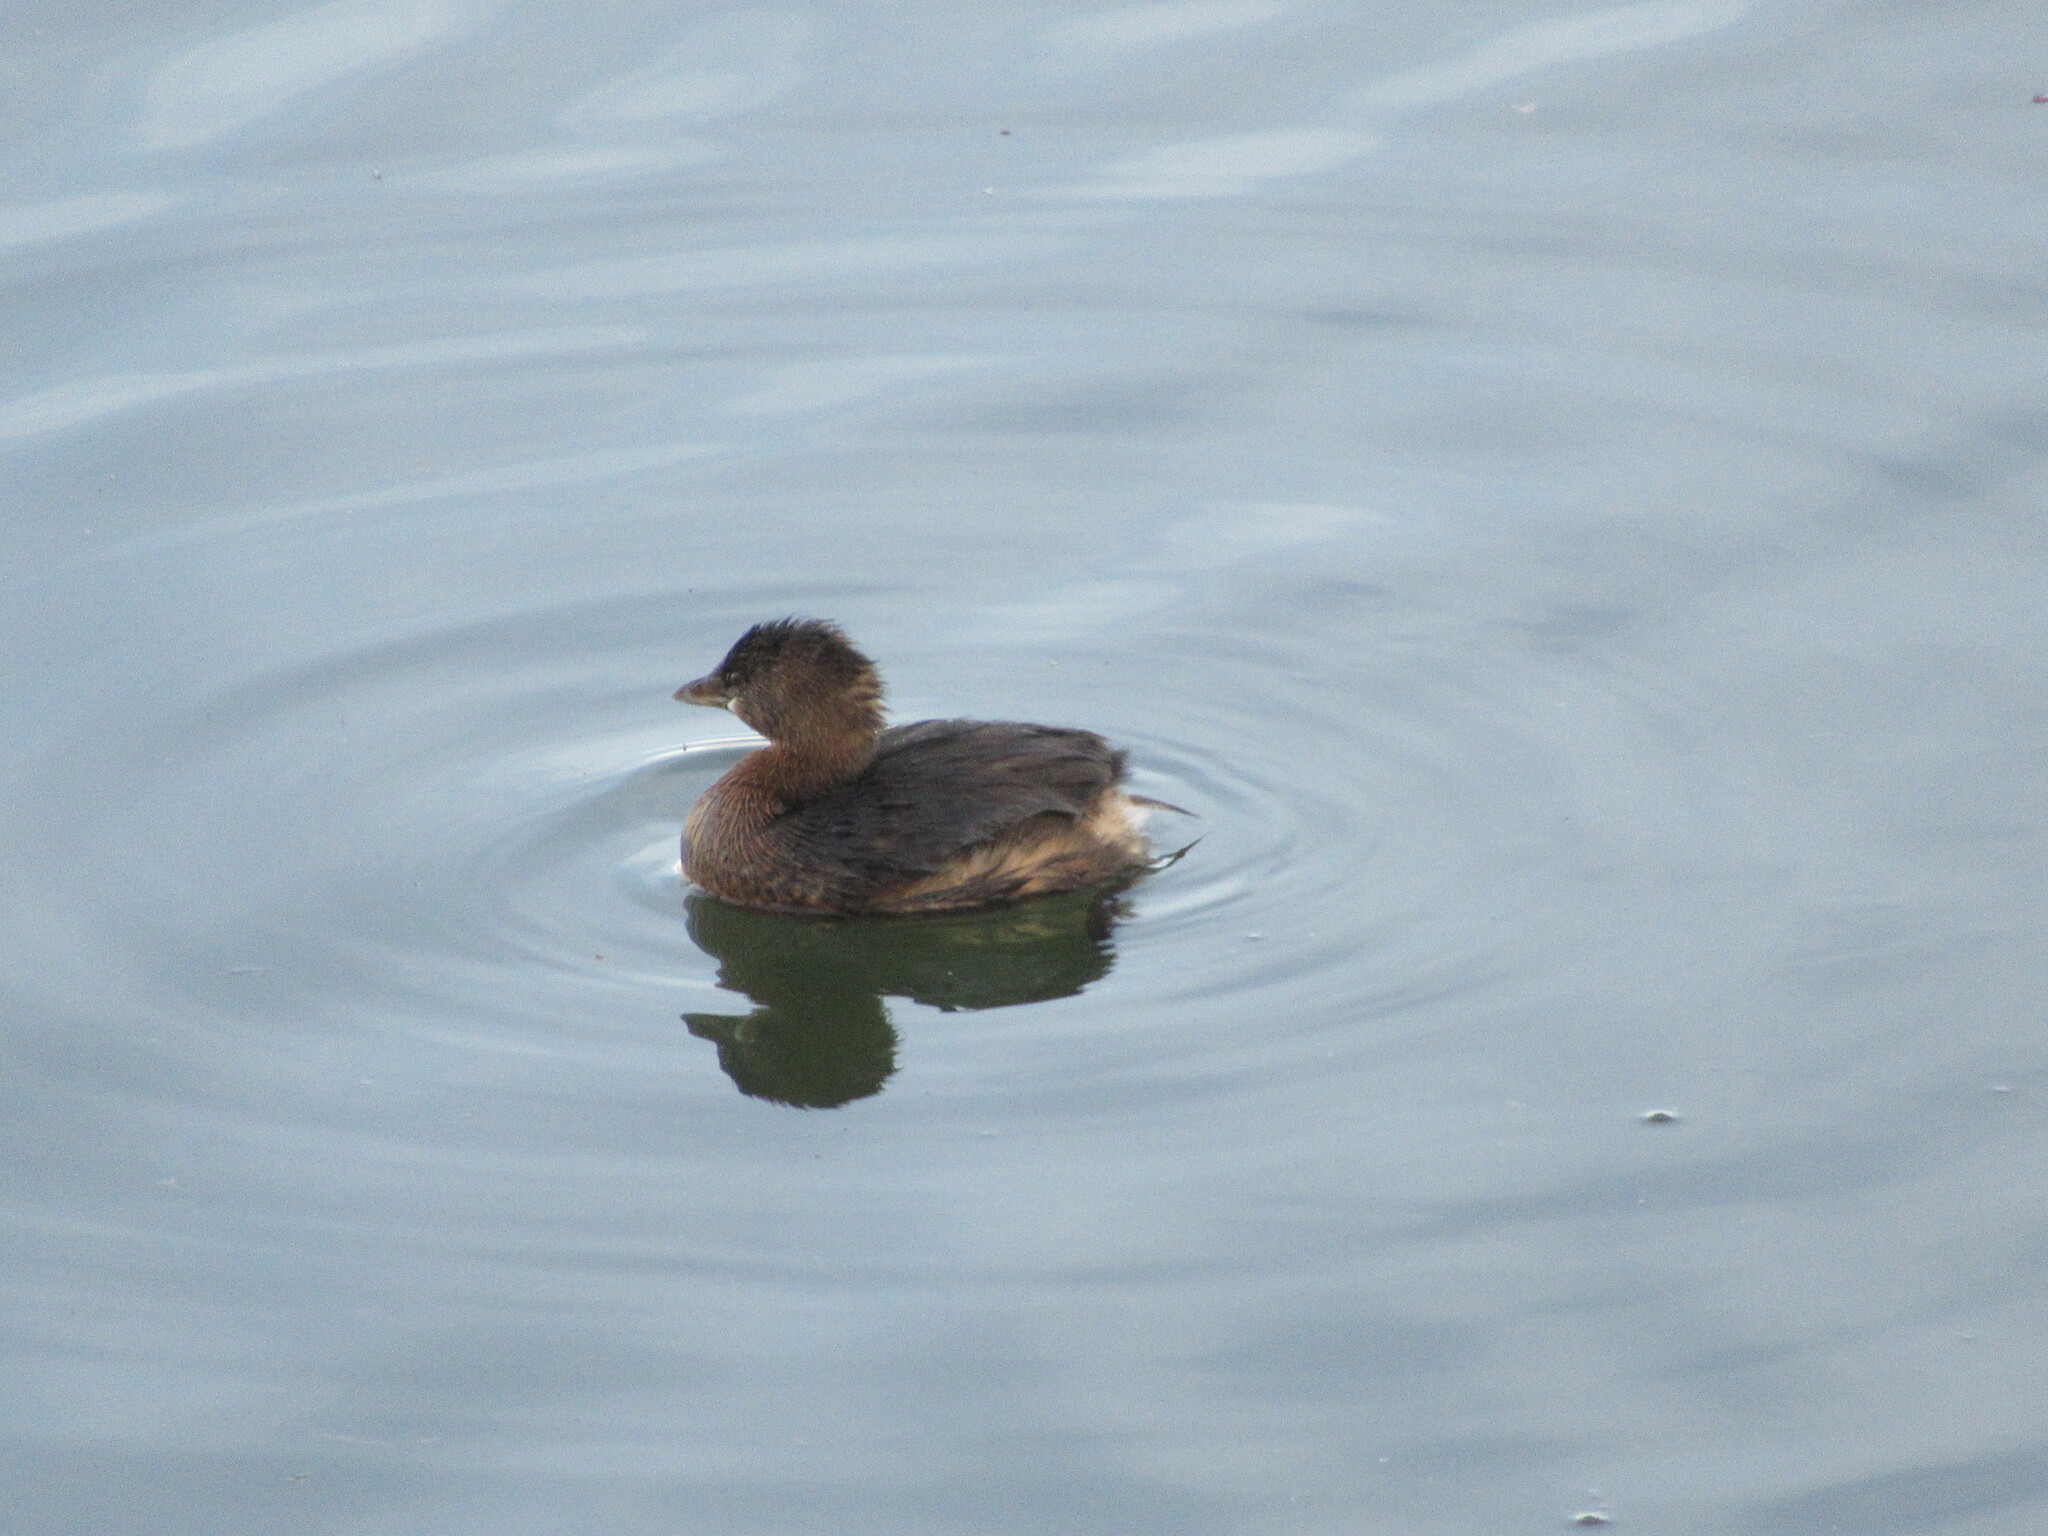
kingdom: Animalia
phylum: Chordata
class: Aves
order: Podicipediformes
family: Podicipedidae
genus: Podilymbus
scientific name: Podilymbus podiceps
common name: Pied-billed grebe
